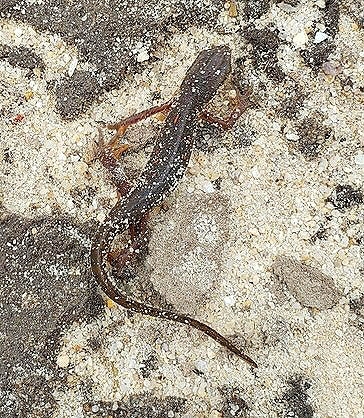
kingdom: Animalia
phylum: Chordata
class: Amphibia
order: Caudata
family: Salamandridae
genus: Notophthalmus
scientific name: Notophthalmus viridescens
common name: Eastern newt
